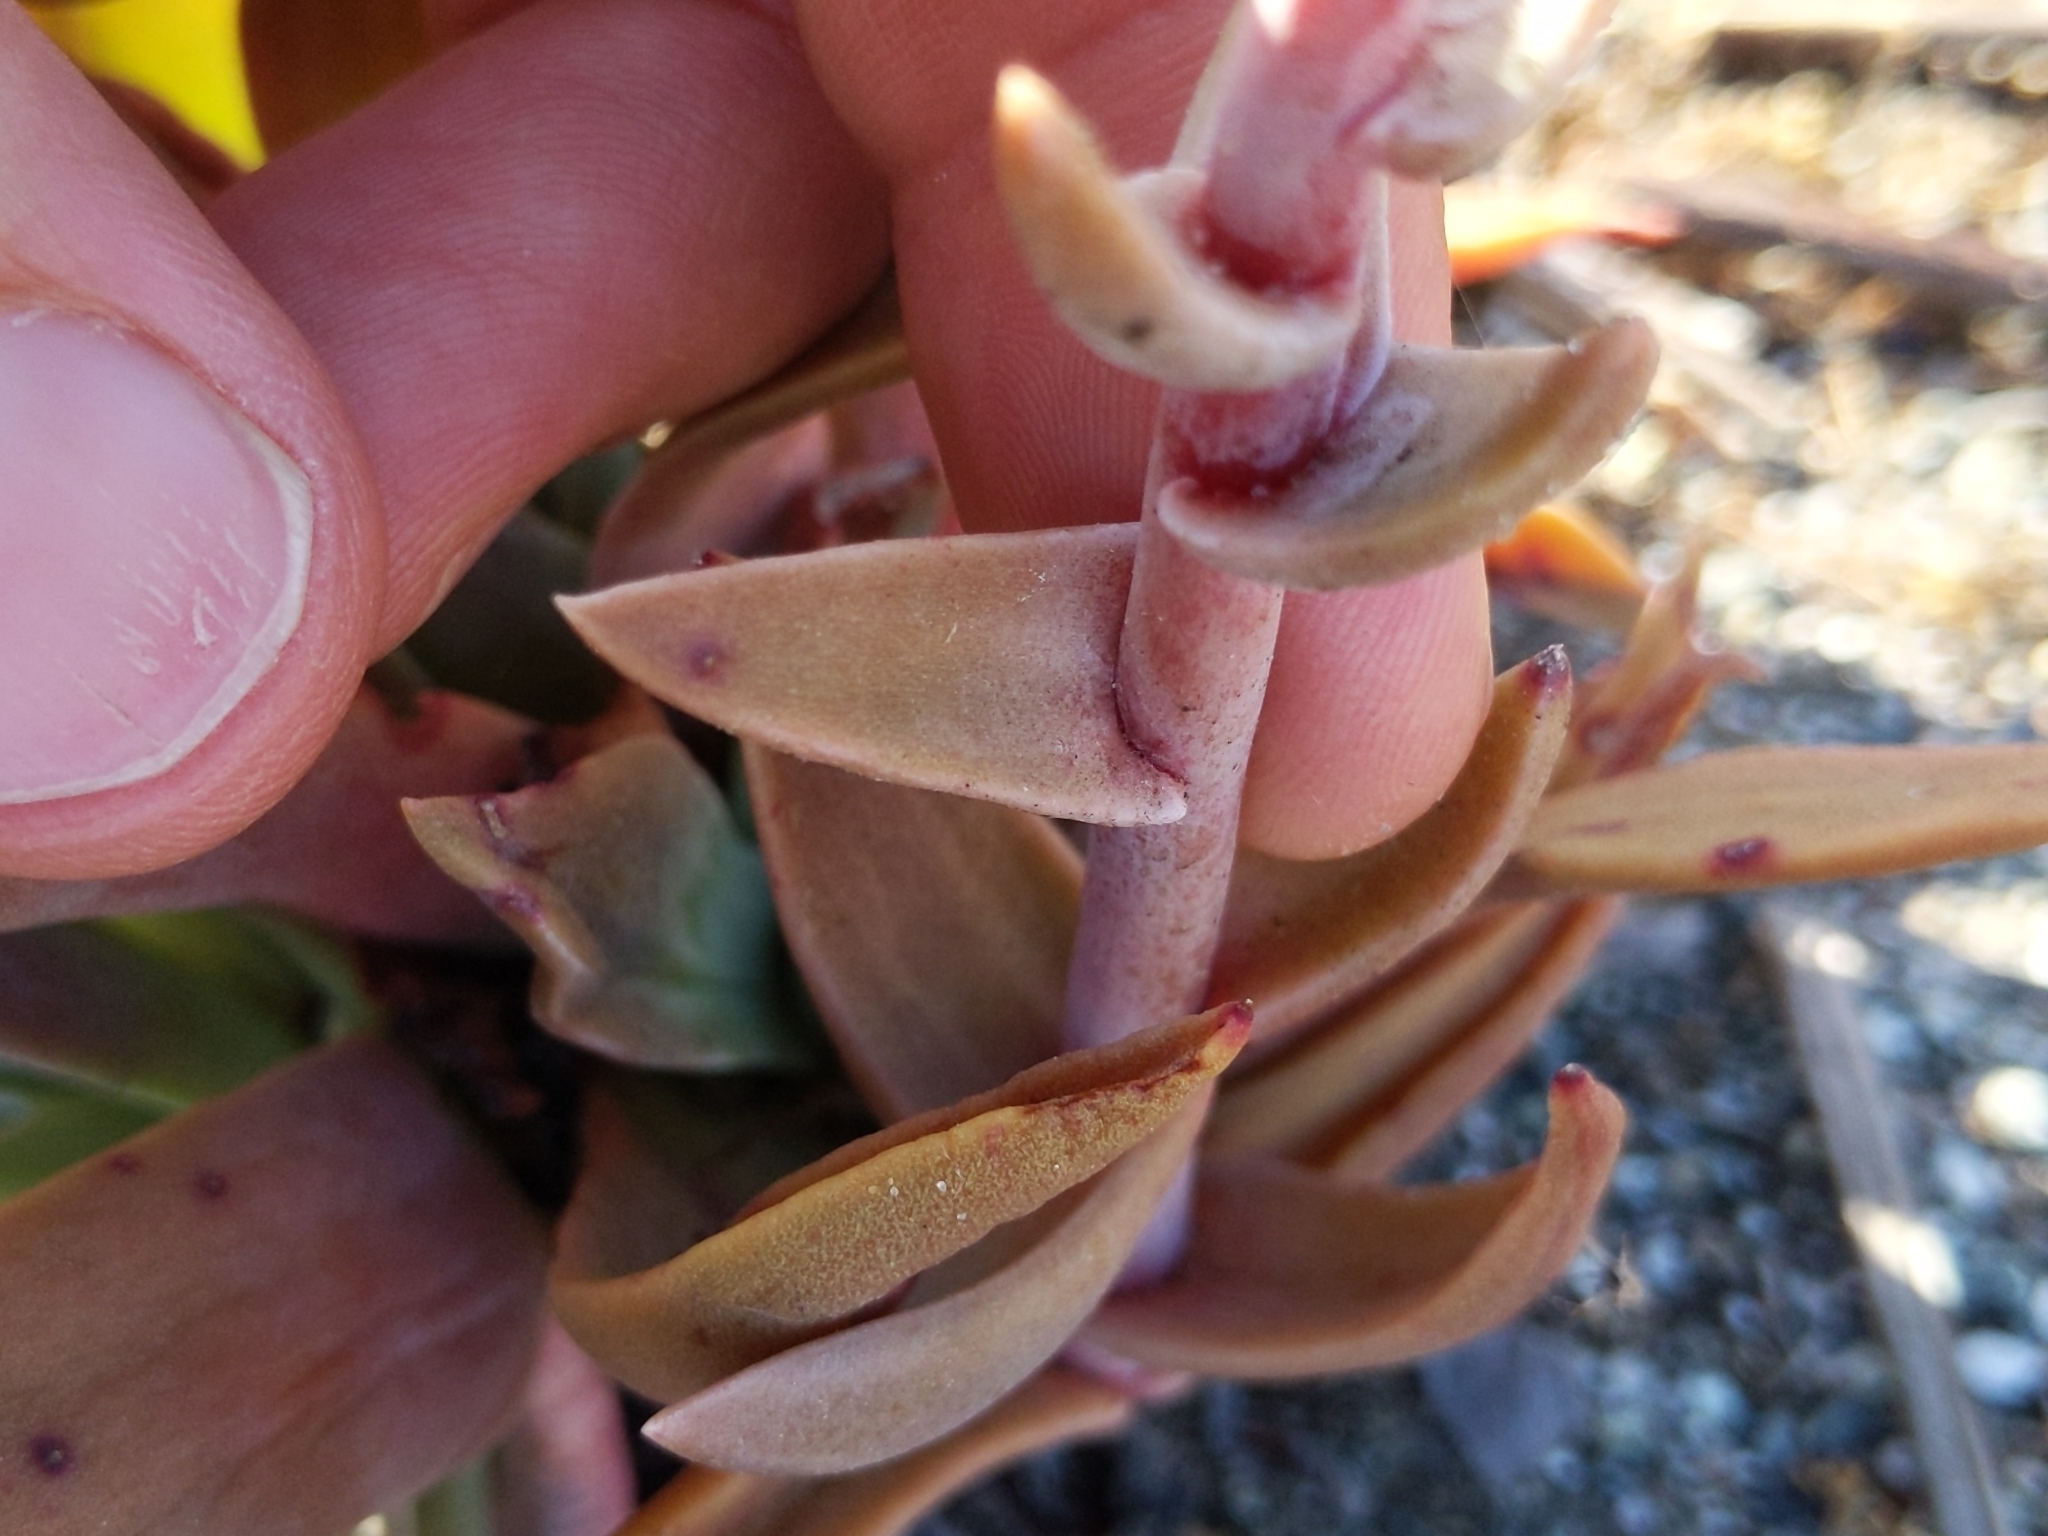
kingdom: Plantae
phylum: Tracheophyta
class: Magnoliopsida
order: Saxifragales
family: Crassulaceae
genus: Dudleya
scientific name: Dudleya caespitosa
